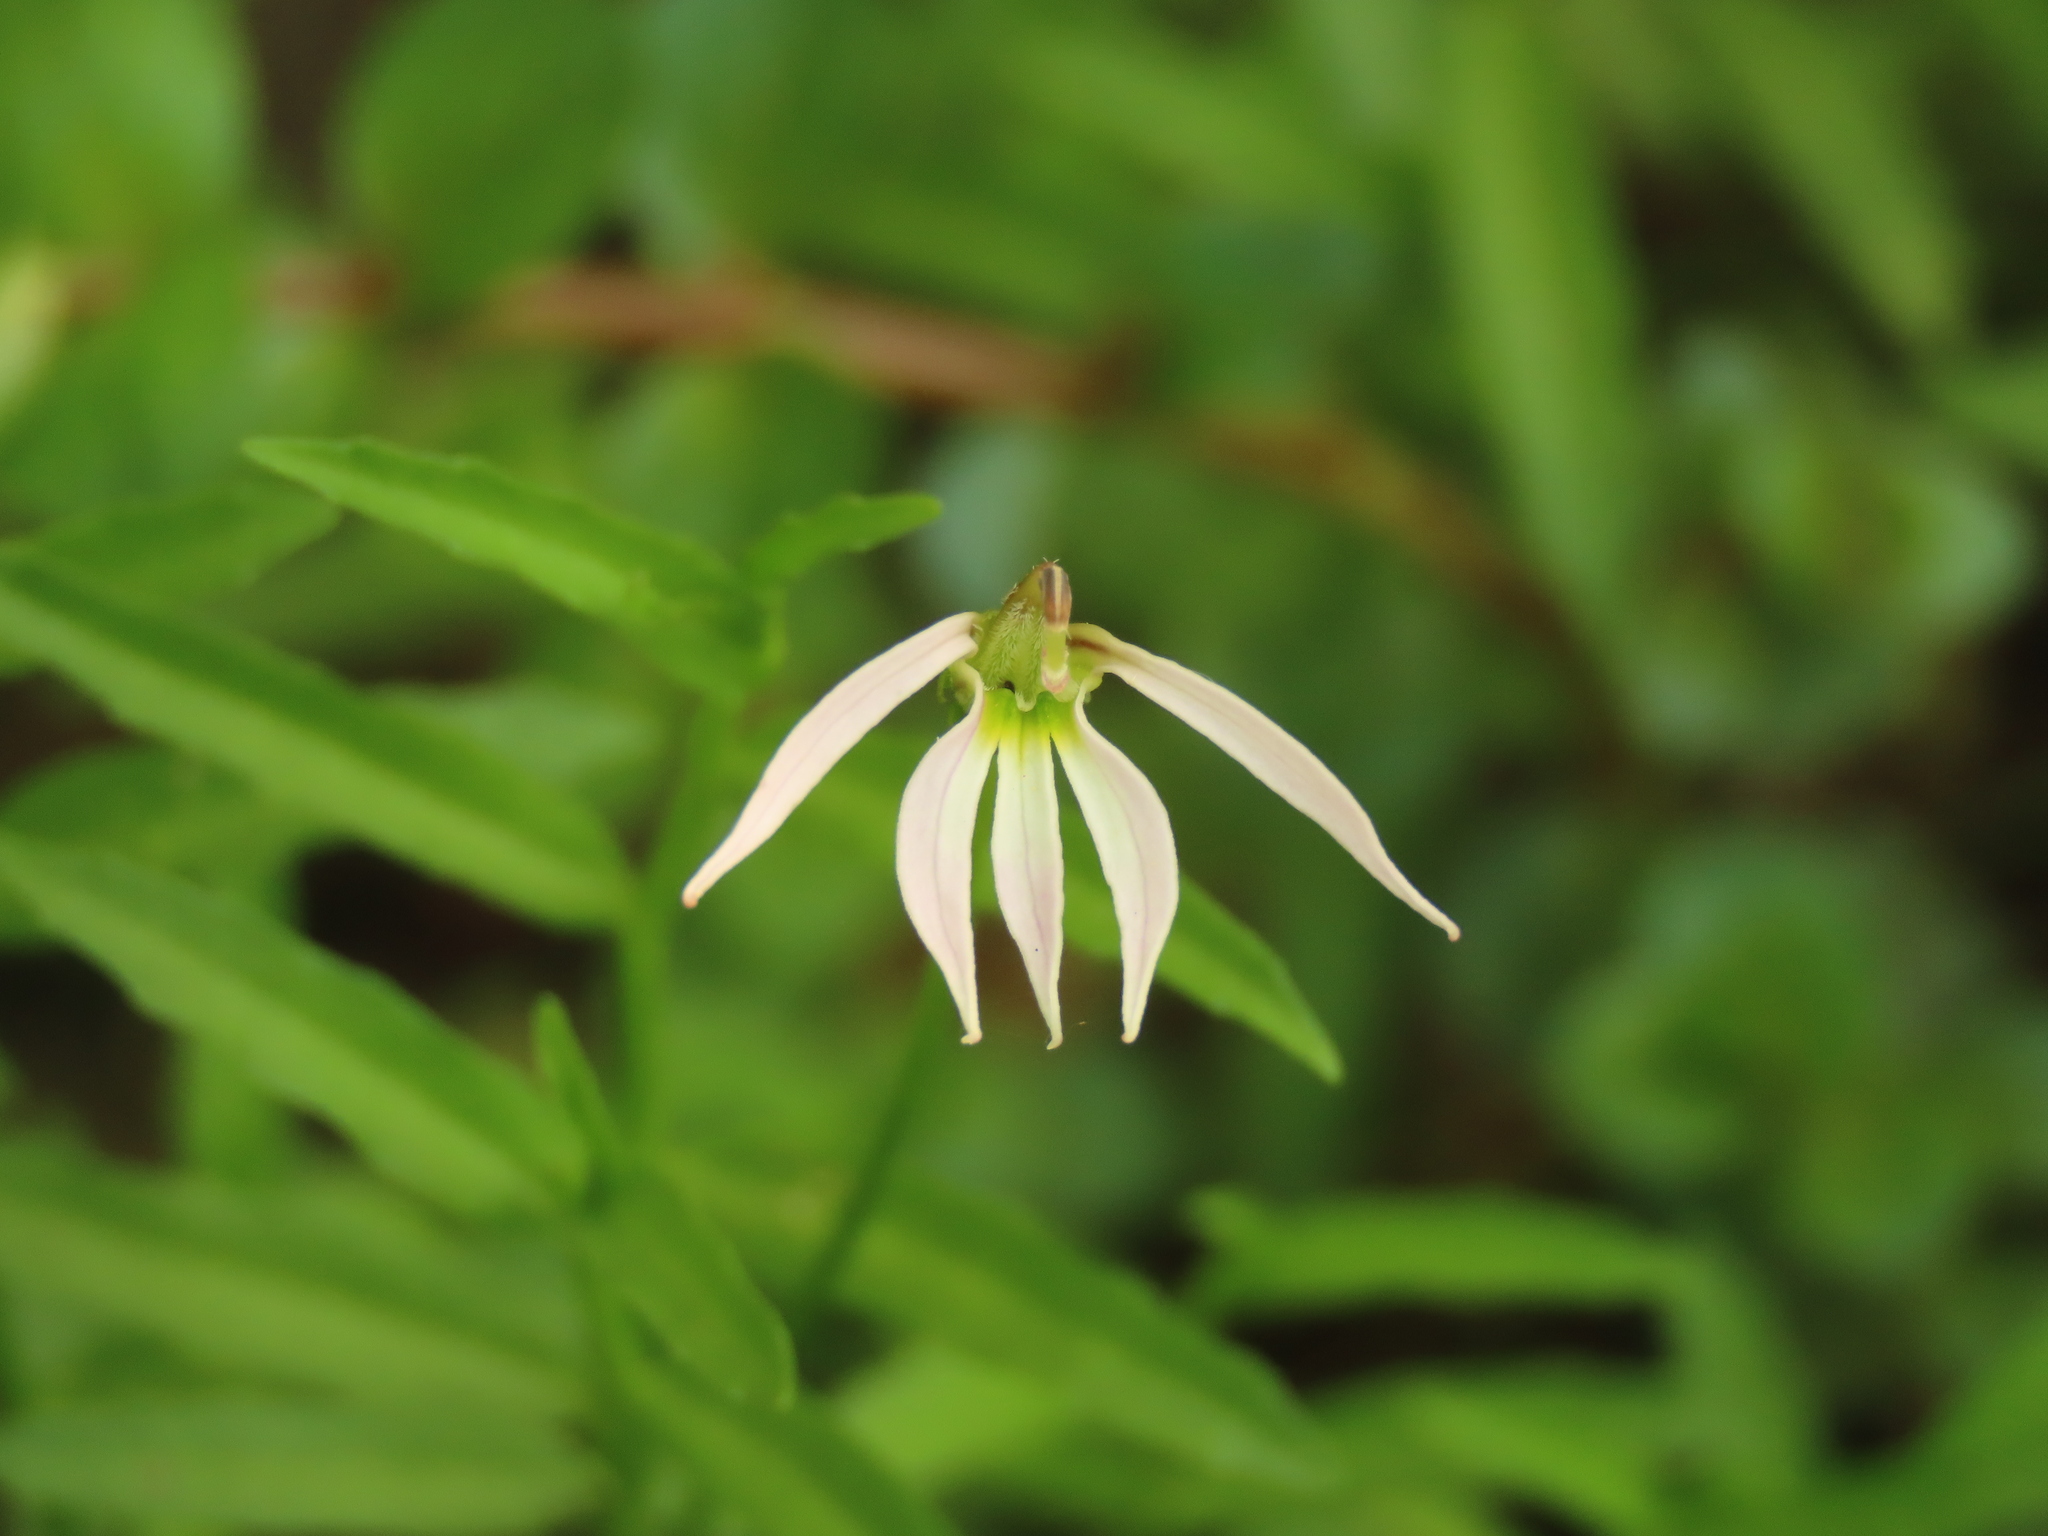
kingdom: Plantae
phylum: Tracheophyta
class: Magnoliopsida
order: Asterales
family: Campanulaceae
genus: Lobelia
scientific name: Lobelia chinensis
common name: Chinese lobelia
